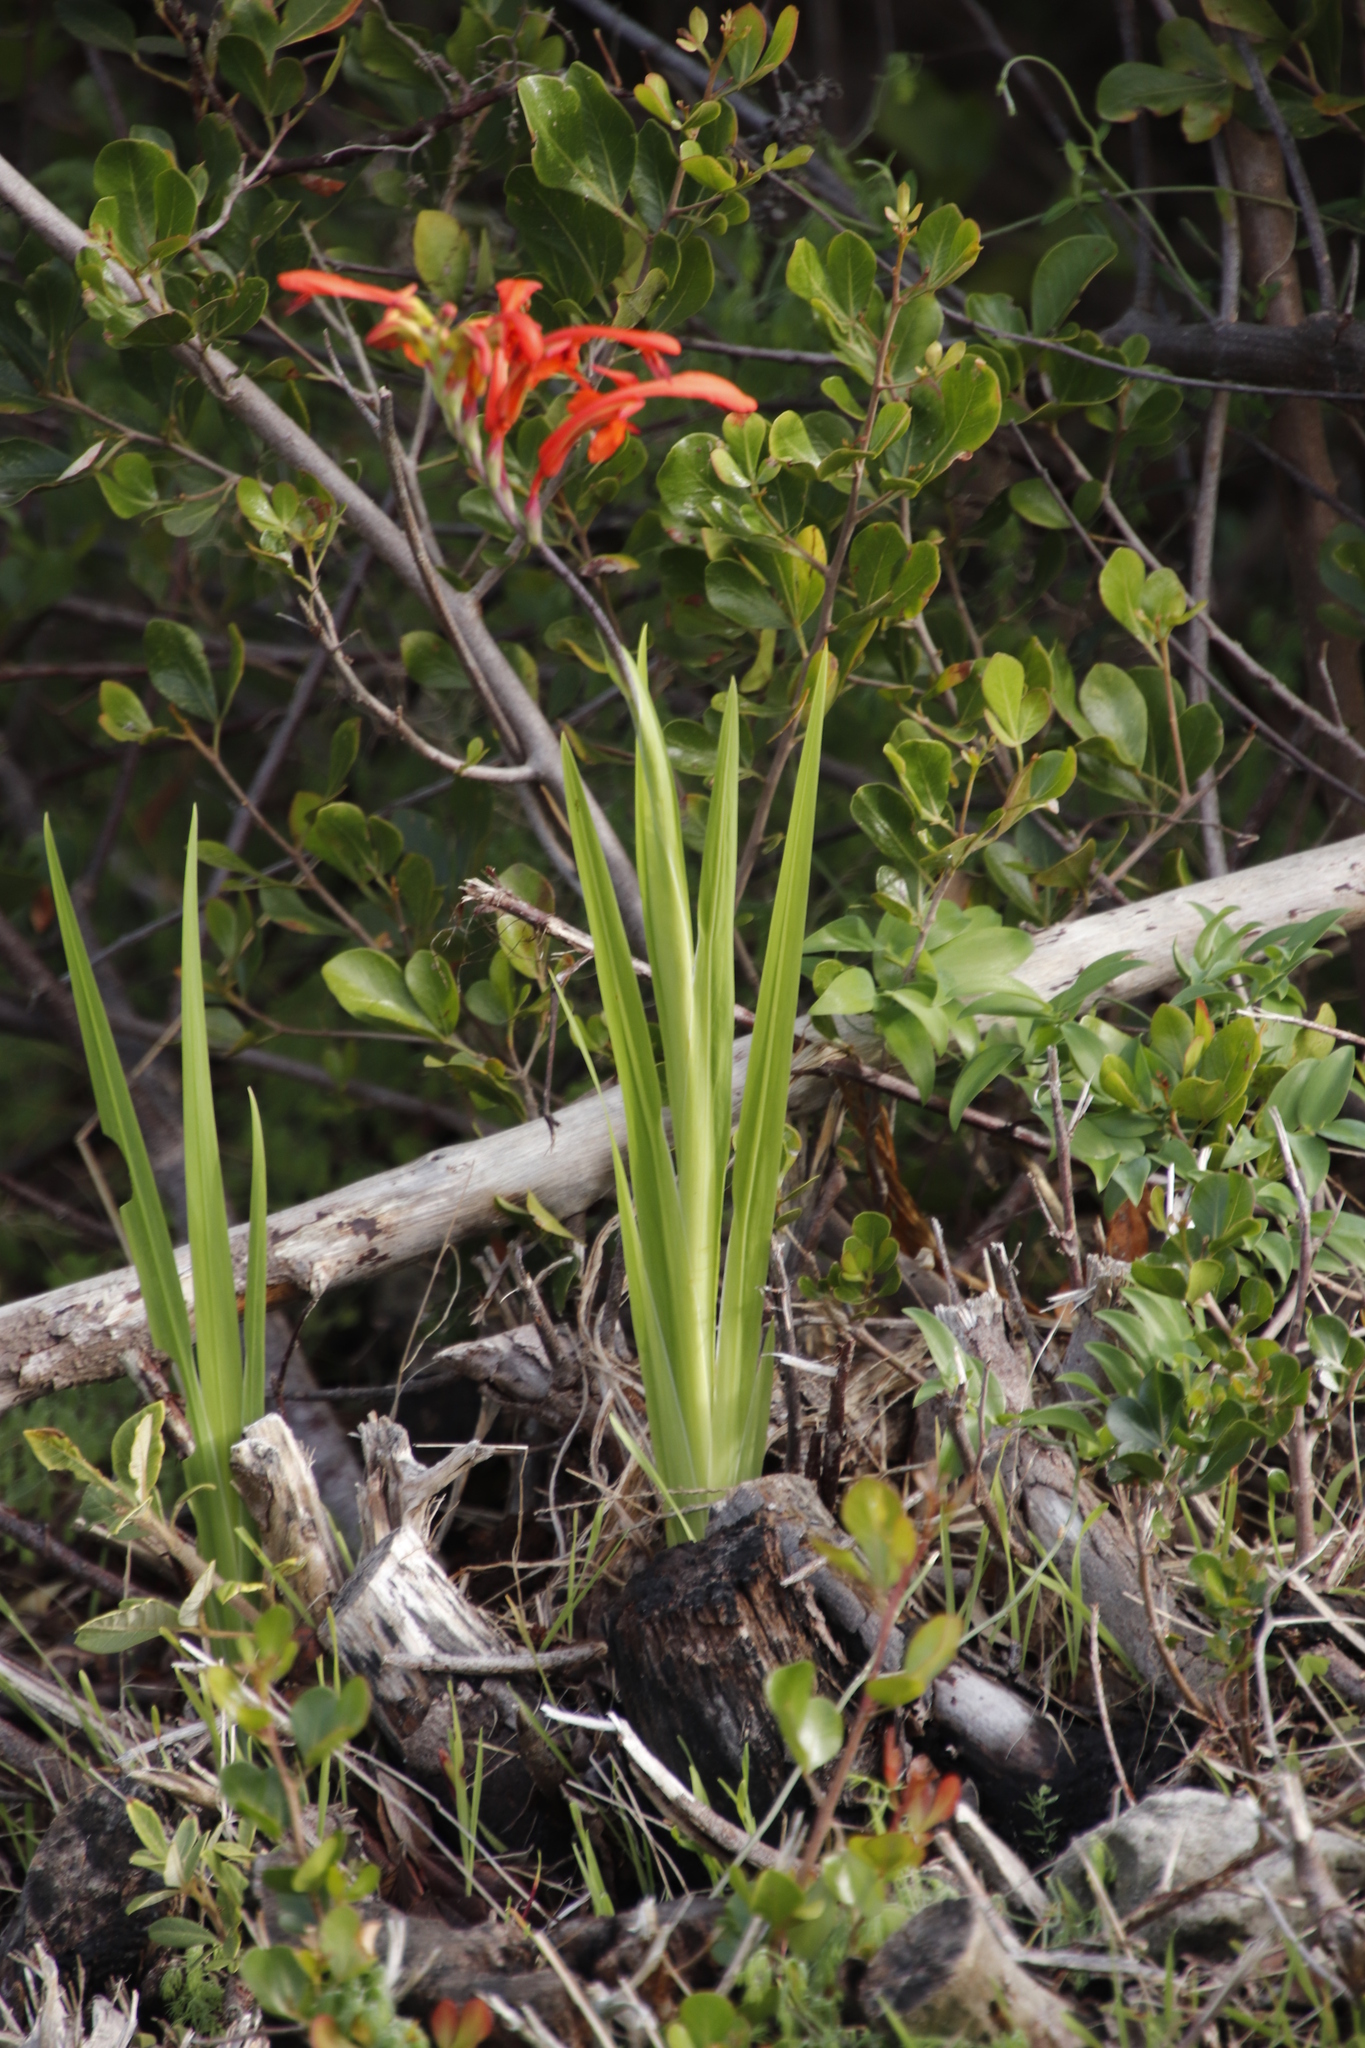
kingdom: Plantae
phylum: Tracheophyta
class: Liliopsida
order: Asparagales
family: Iridaceae
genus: Chasmanthe
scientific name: Chasmanthe aethiopica
